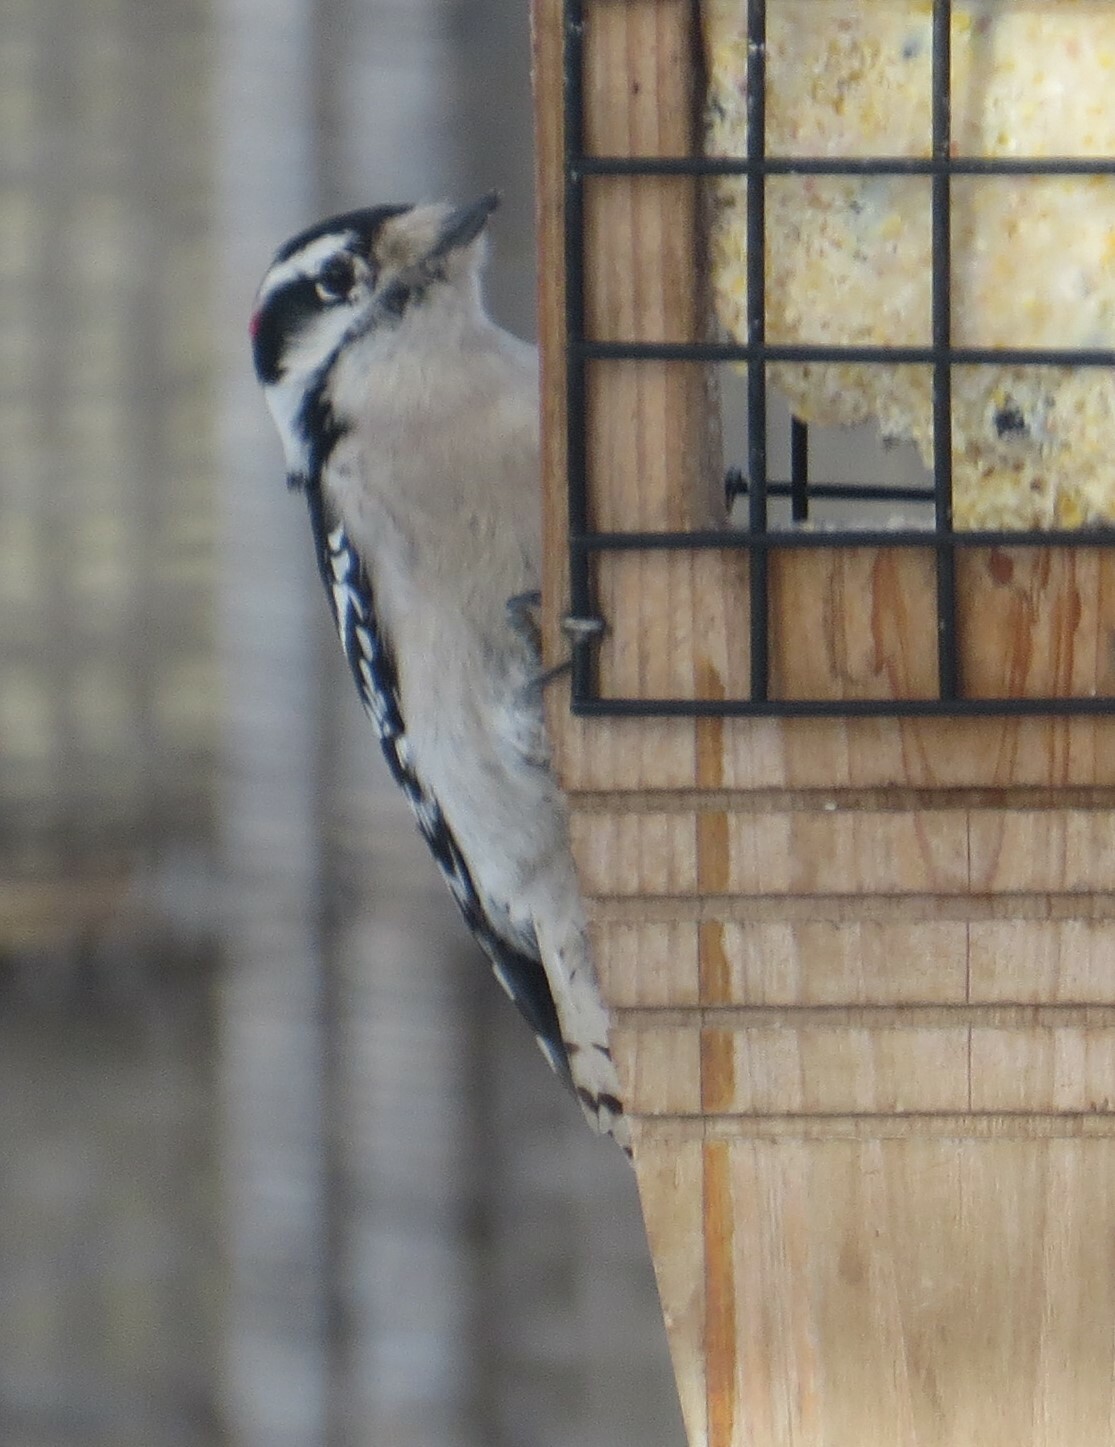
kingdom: Animalia
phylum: Chordata
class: Aves
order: Piciformes
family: Picidae
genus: Dryobates
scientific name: Dryobates pubescens
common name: Downy woodpecker
